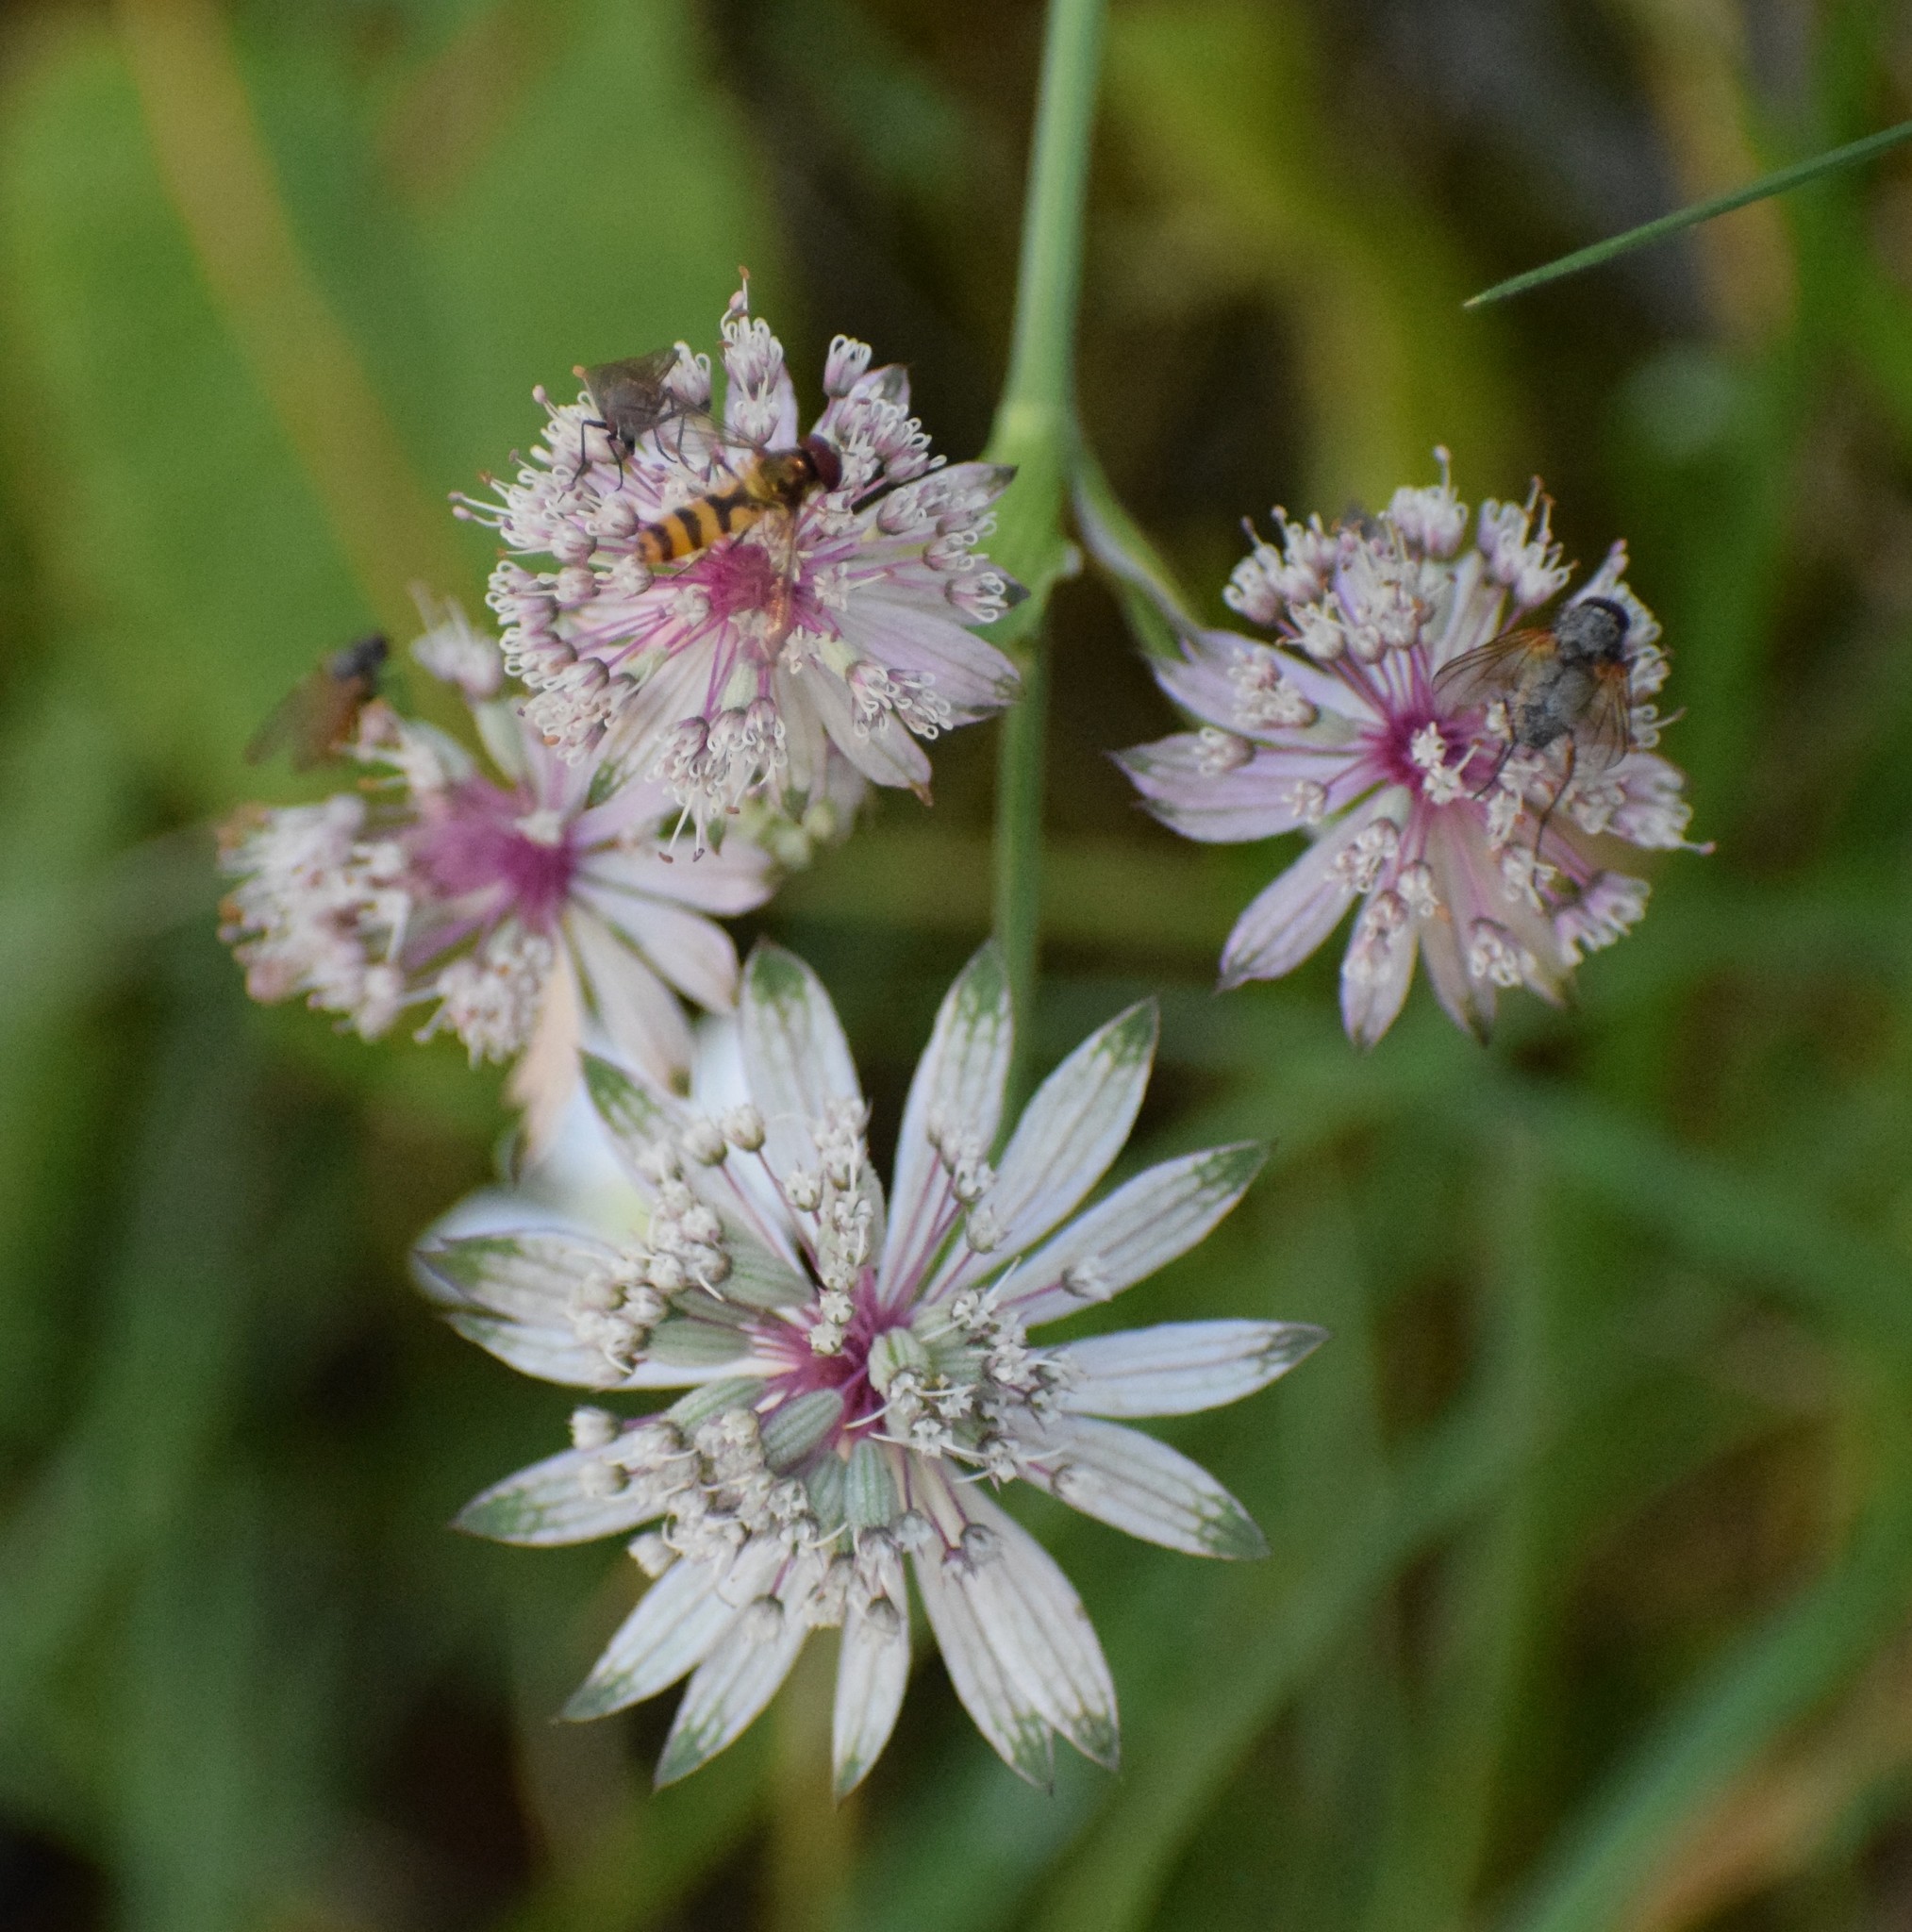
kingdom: Plantae
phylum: Tracheophyta
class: Magnoliopsida
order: Apiales
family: Apiaceae
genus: Astrantia
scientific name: Astrantia major
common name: Greater masterwort
